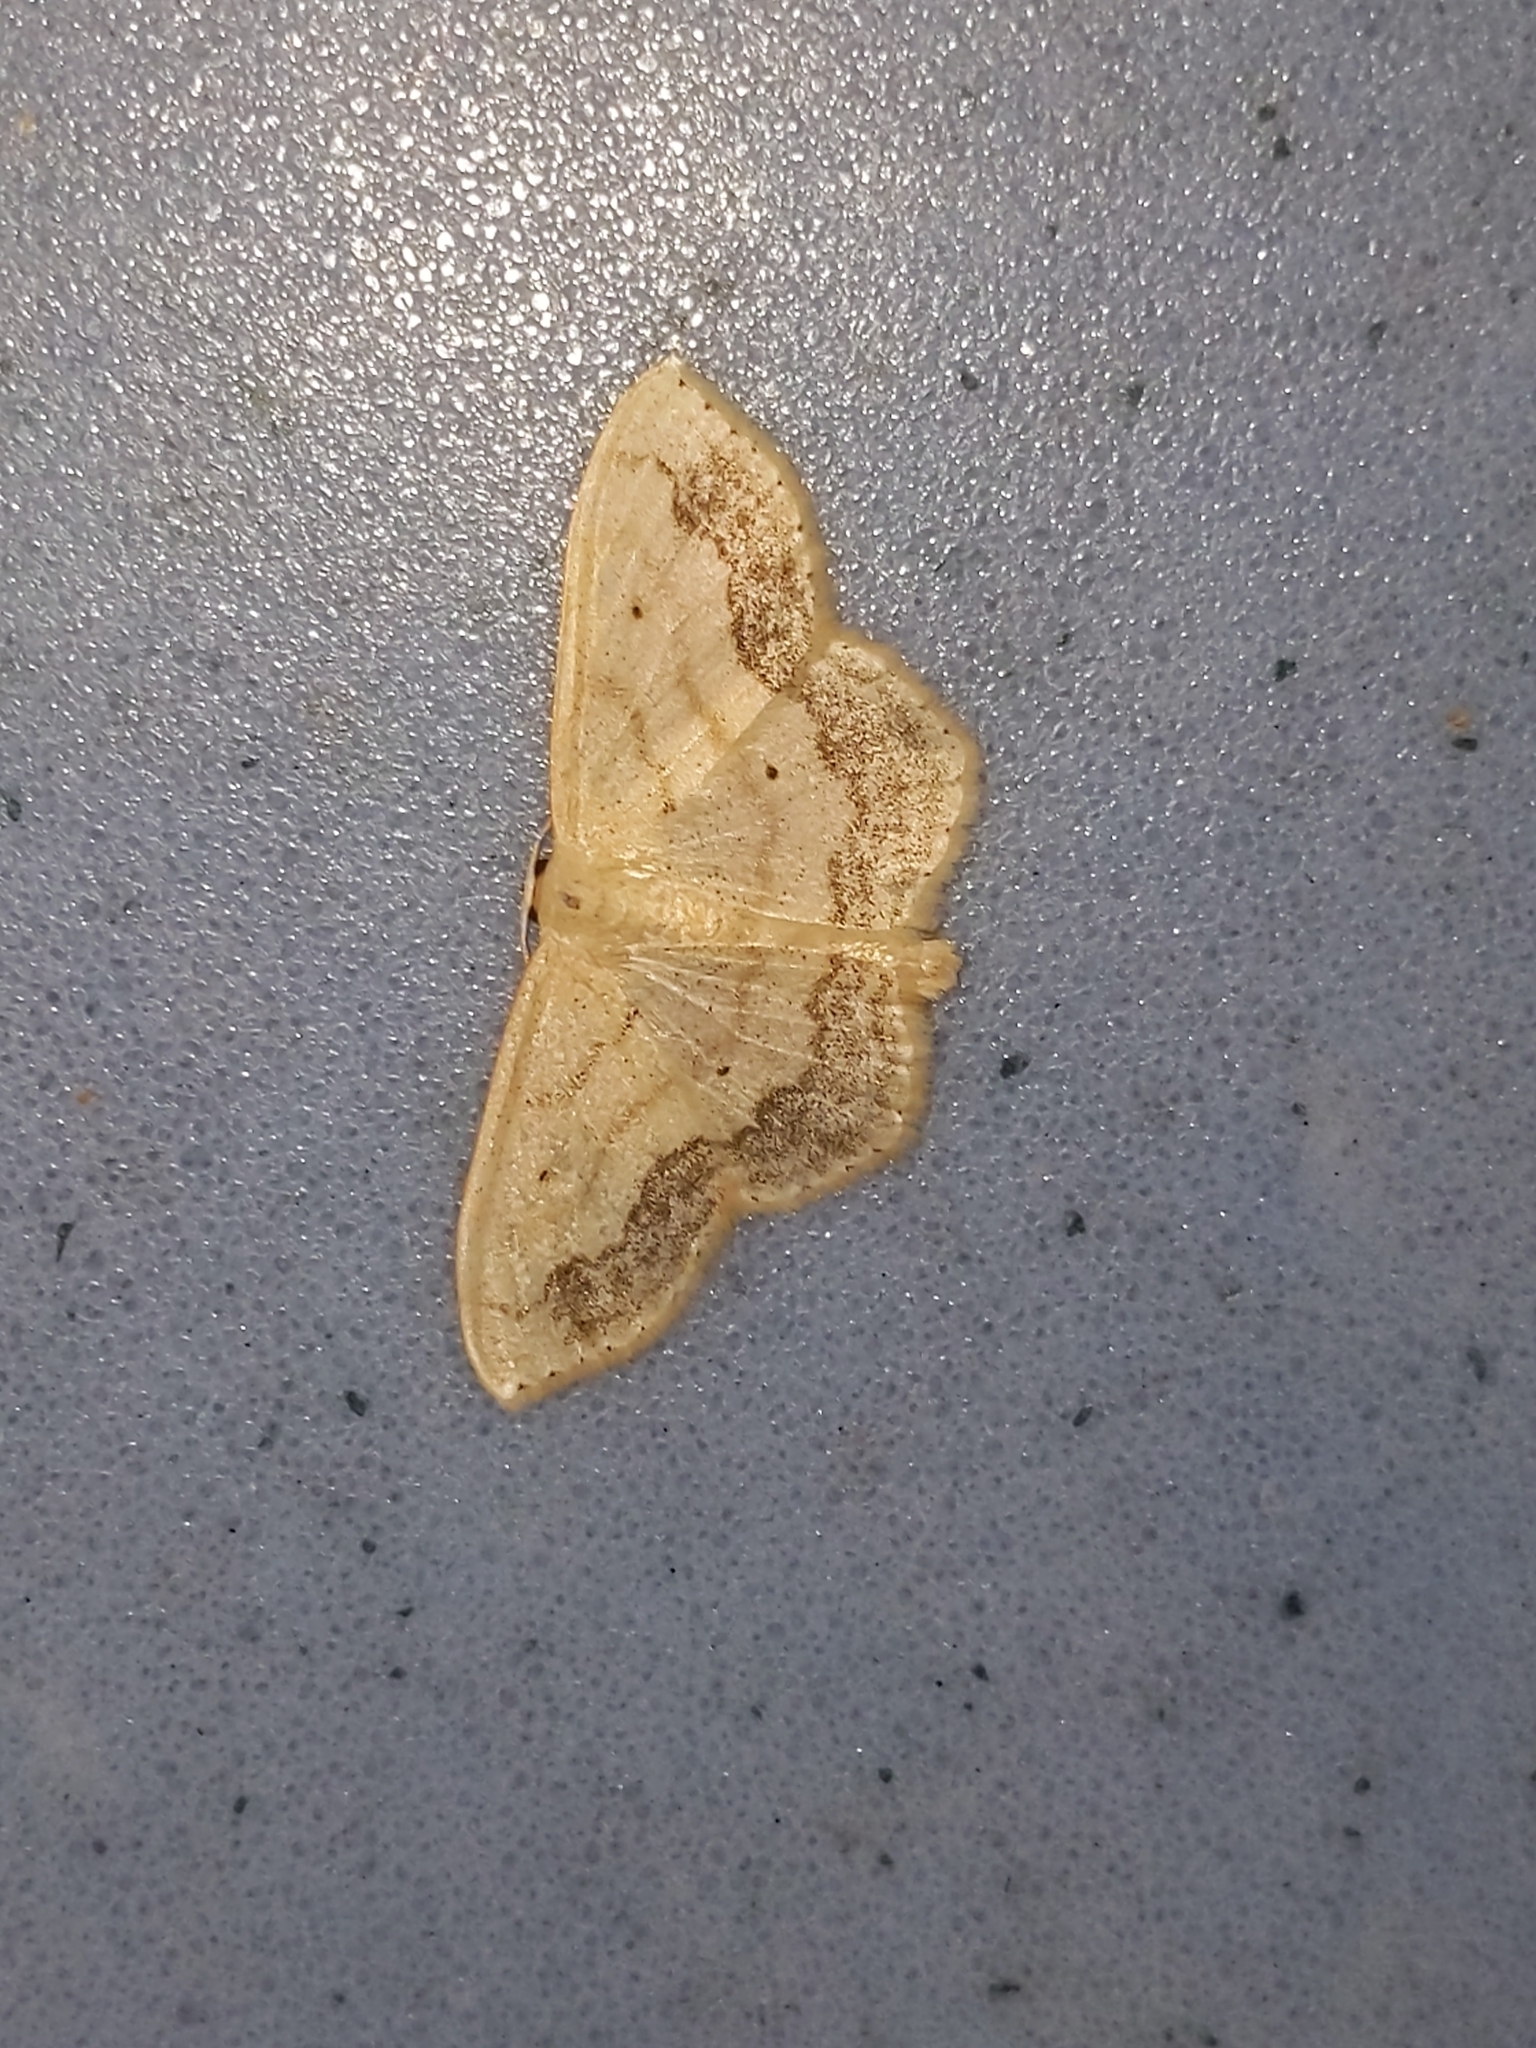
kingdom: Animalia
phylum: Arthropoda
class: Insecta
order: Lepidoptera
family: Geometridae
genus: Scopula
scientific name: Scopula limboundata
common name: Large lace border
